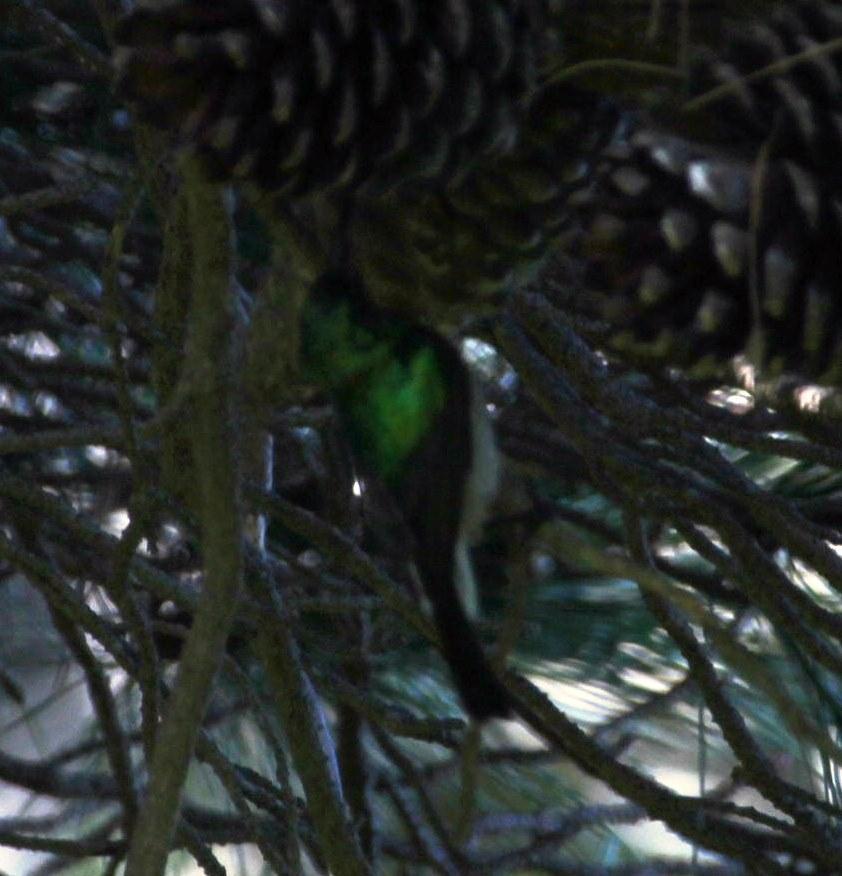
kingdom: Animalia
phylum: Chordata
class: Aves
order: Passeriformes
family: Nectariniidae
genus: Cinnyris
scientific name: Cinnyris chalybeus
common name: Southern double-collared sunbird
